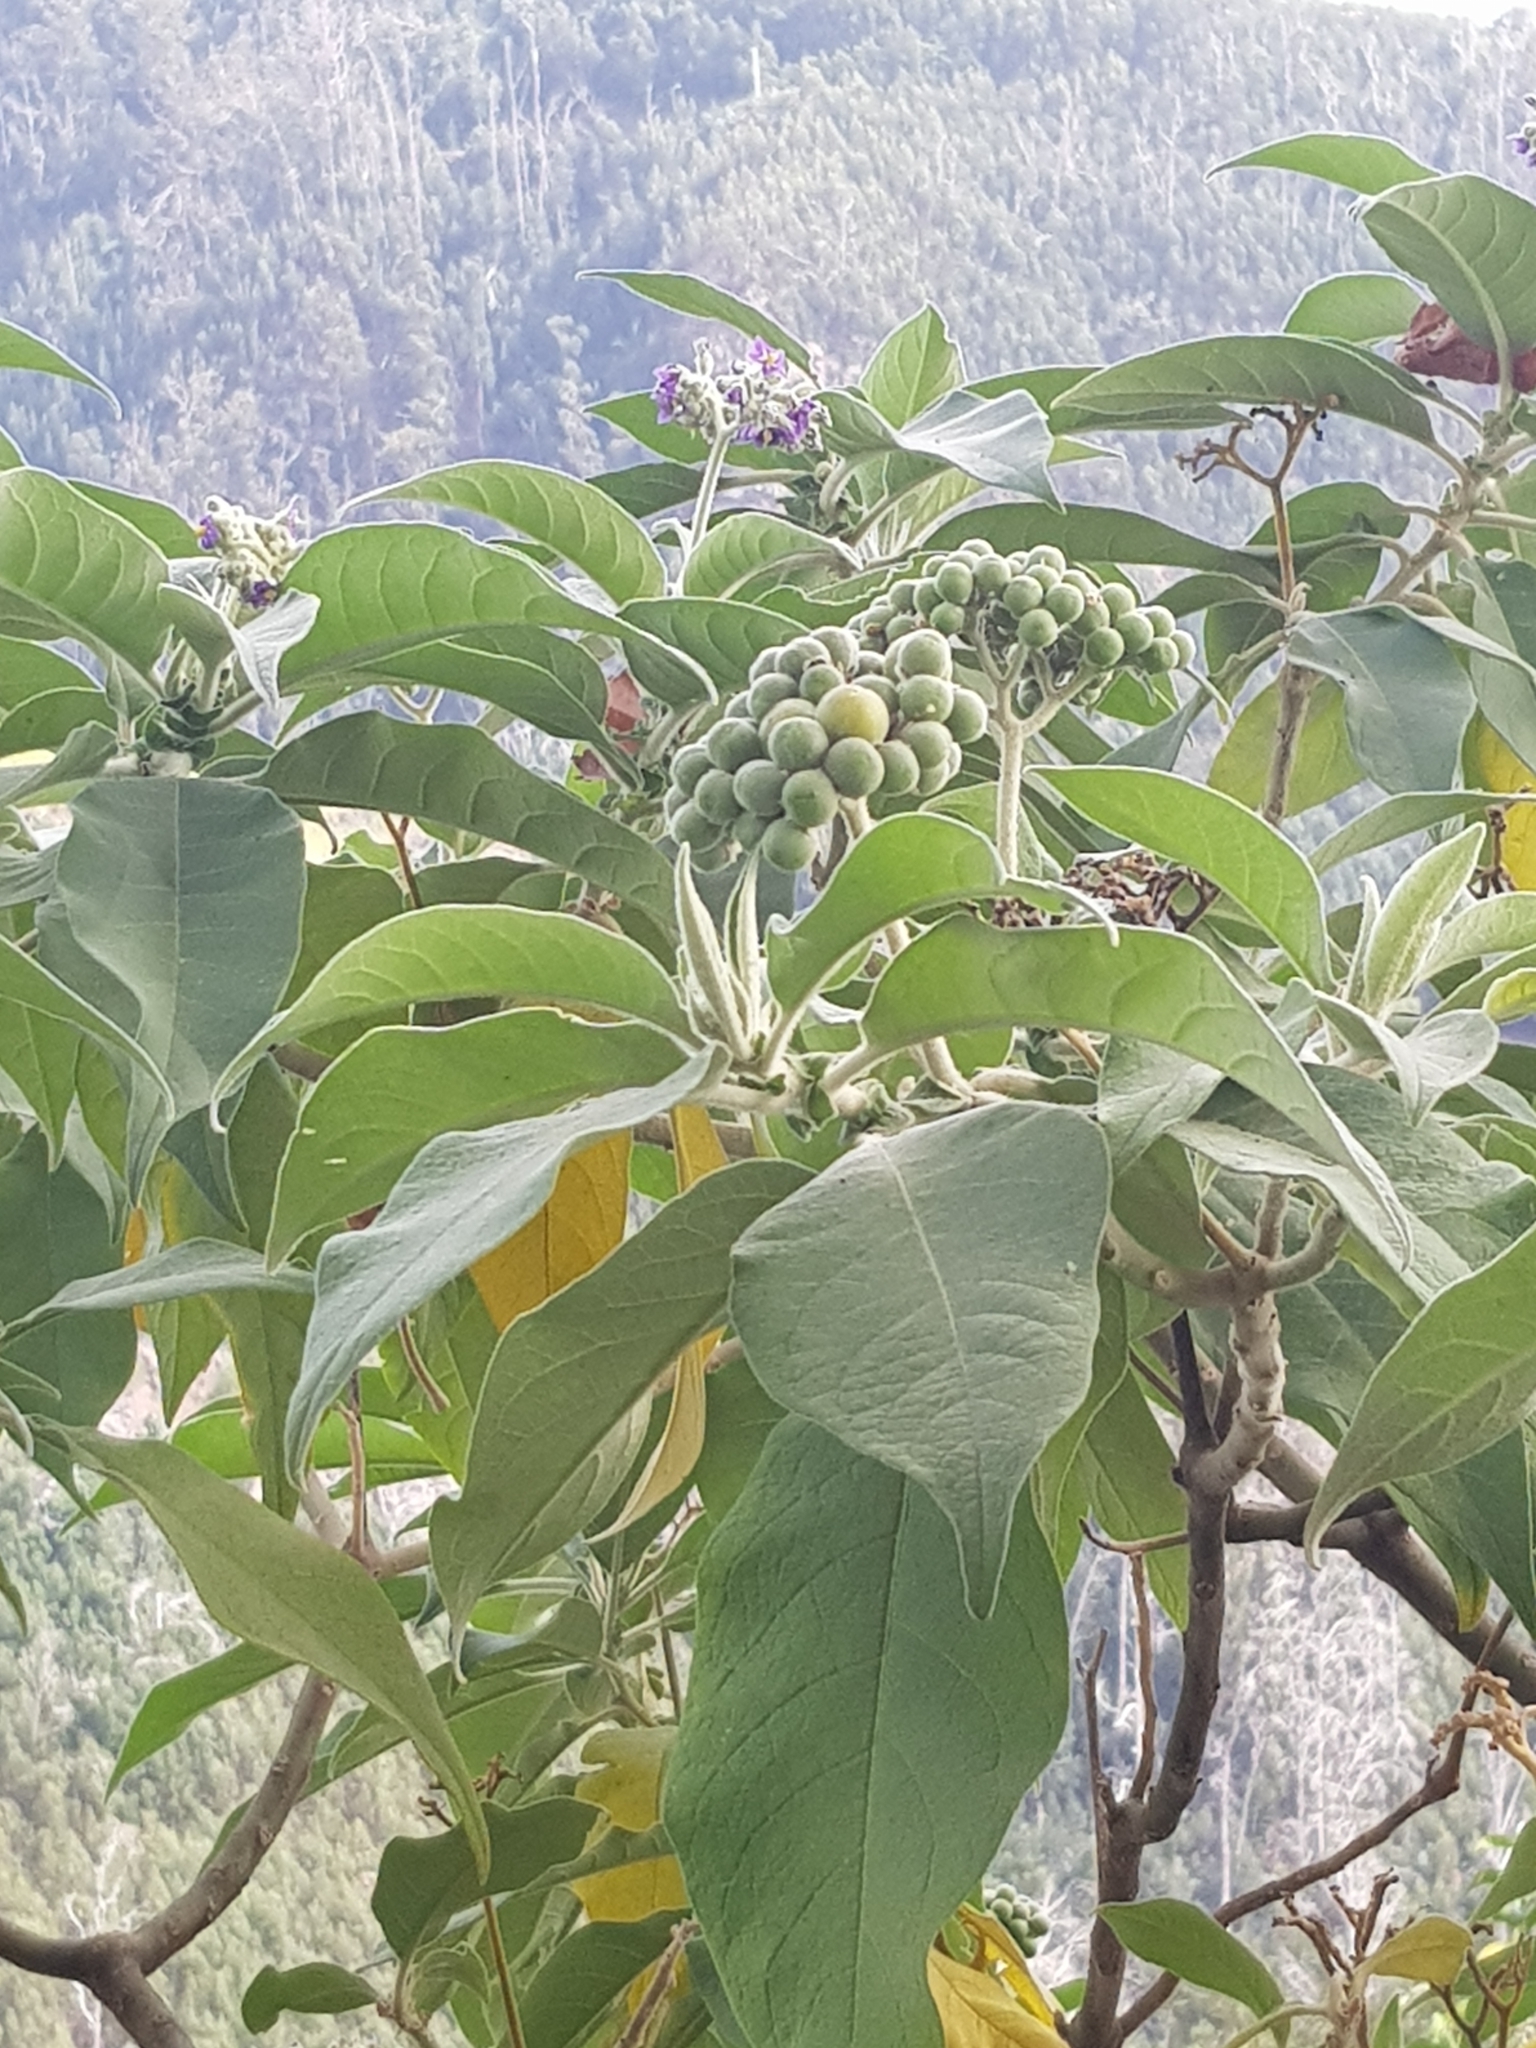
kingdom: Plantae
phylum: Tracheophyta
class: Magnoliopsida
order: Solanales
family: Solanaceae
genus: Solanum
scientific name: Solanum mauritianum
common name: Earleaf nightshade
